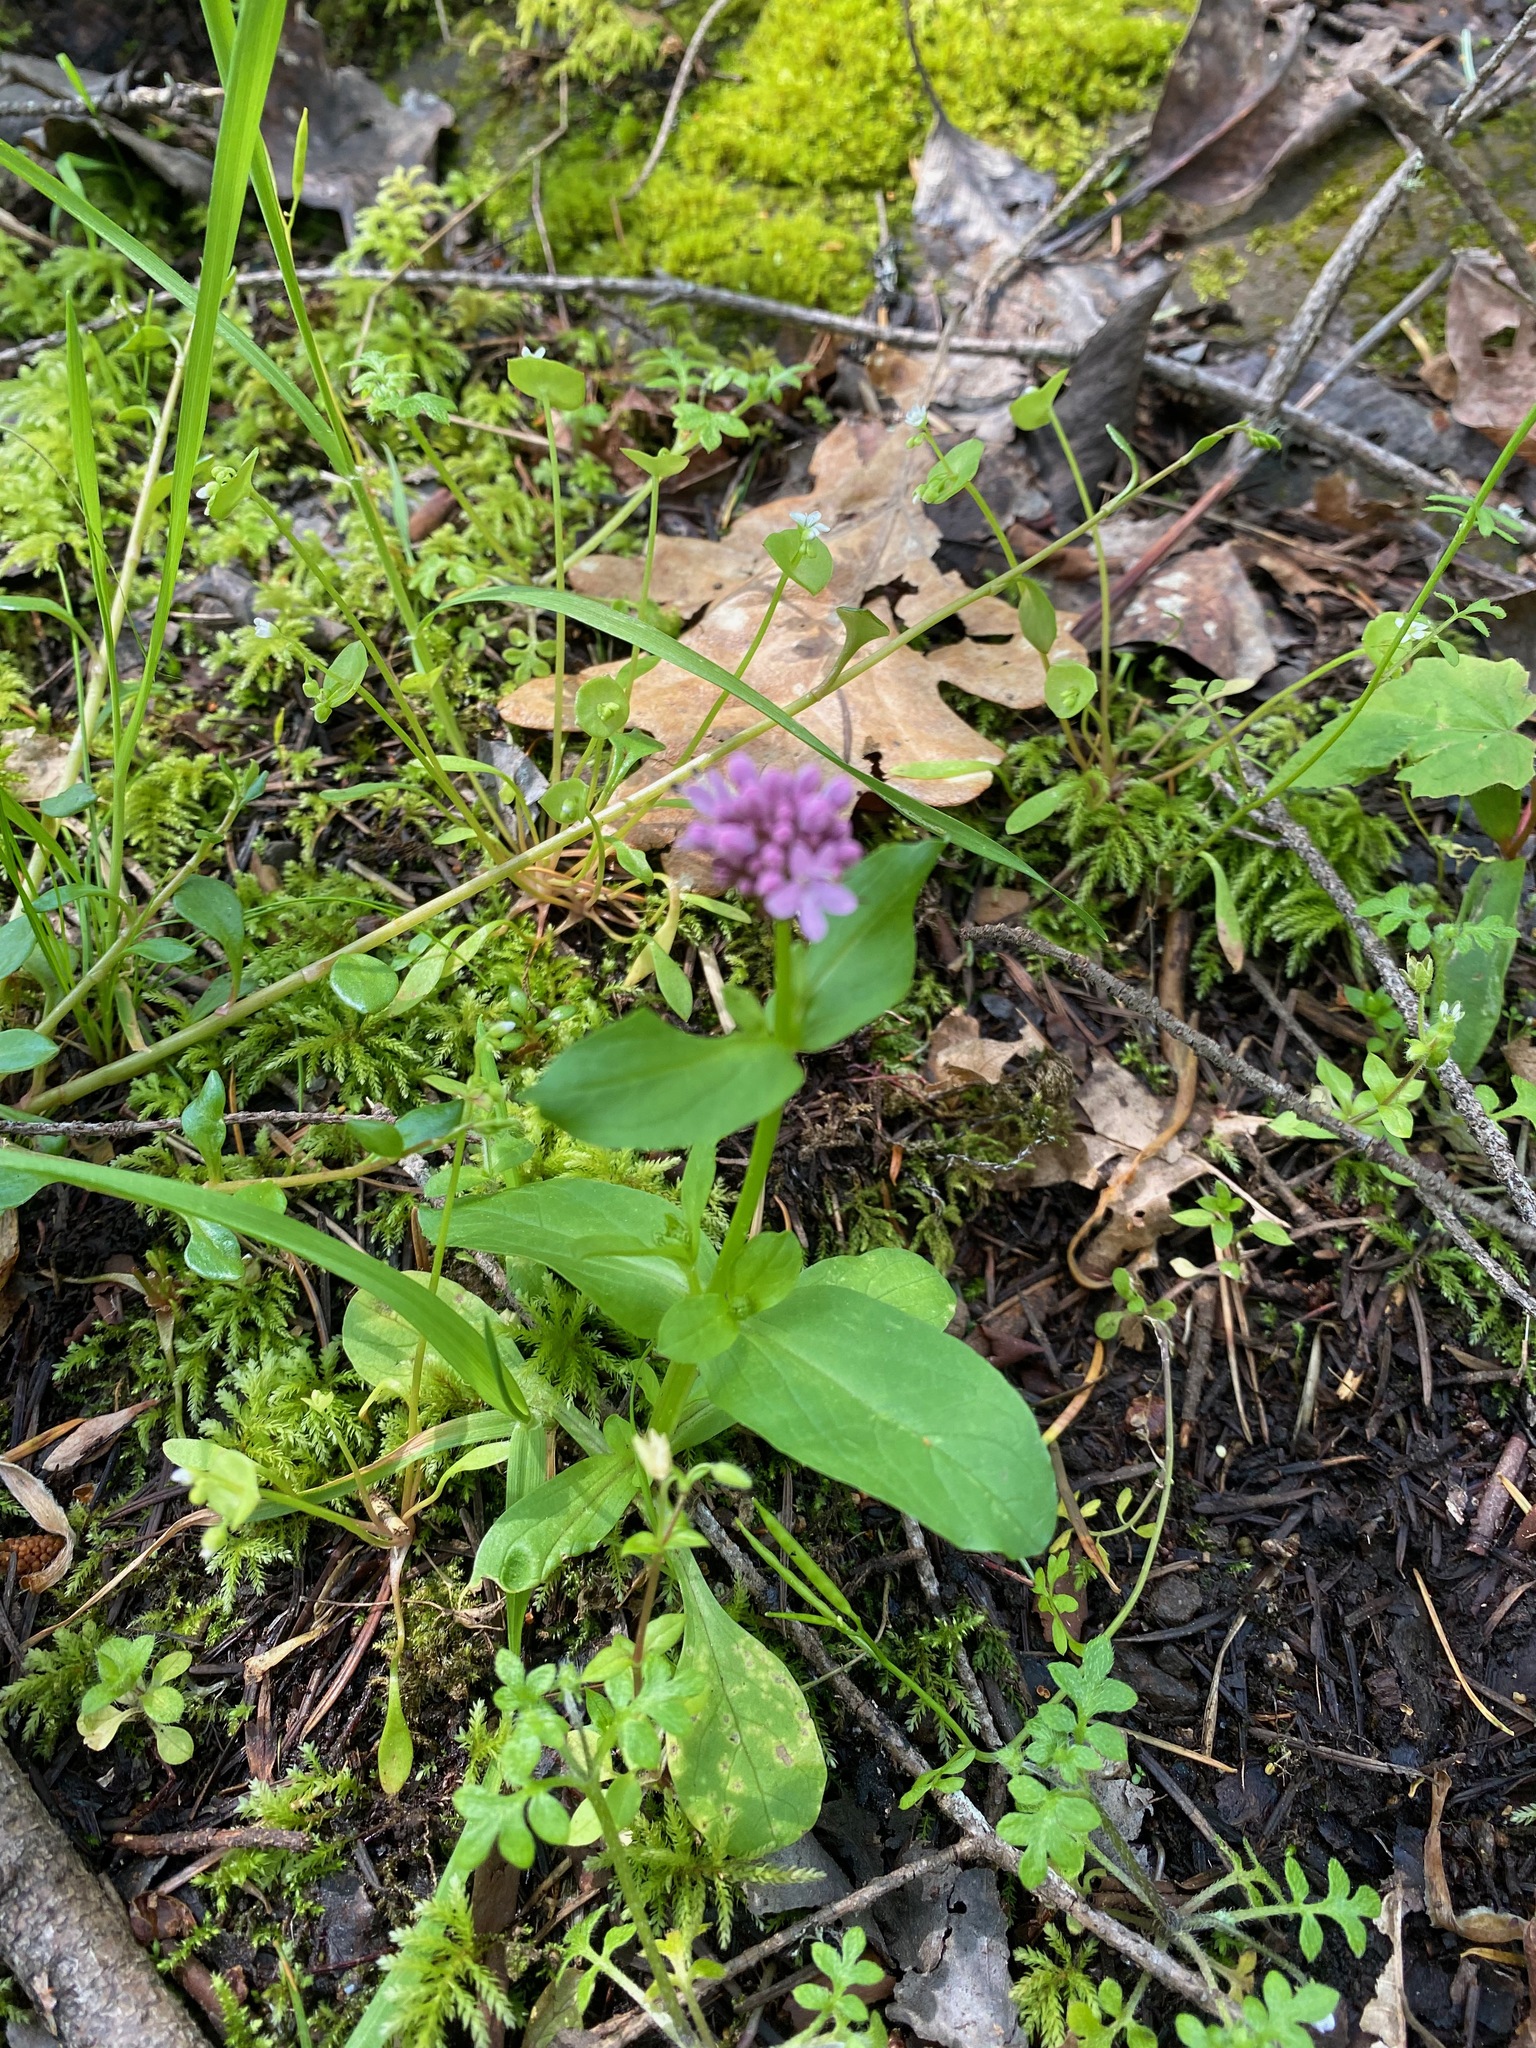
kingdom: Plantae
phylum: Tracheophyta
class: Magnoliopsida
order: Dipsacales
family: Caprifoliaceae
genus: Plectritis
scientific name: Plectritis congesta
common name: Pink plectritis
